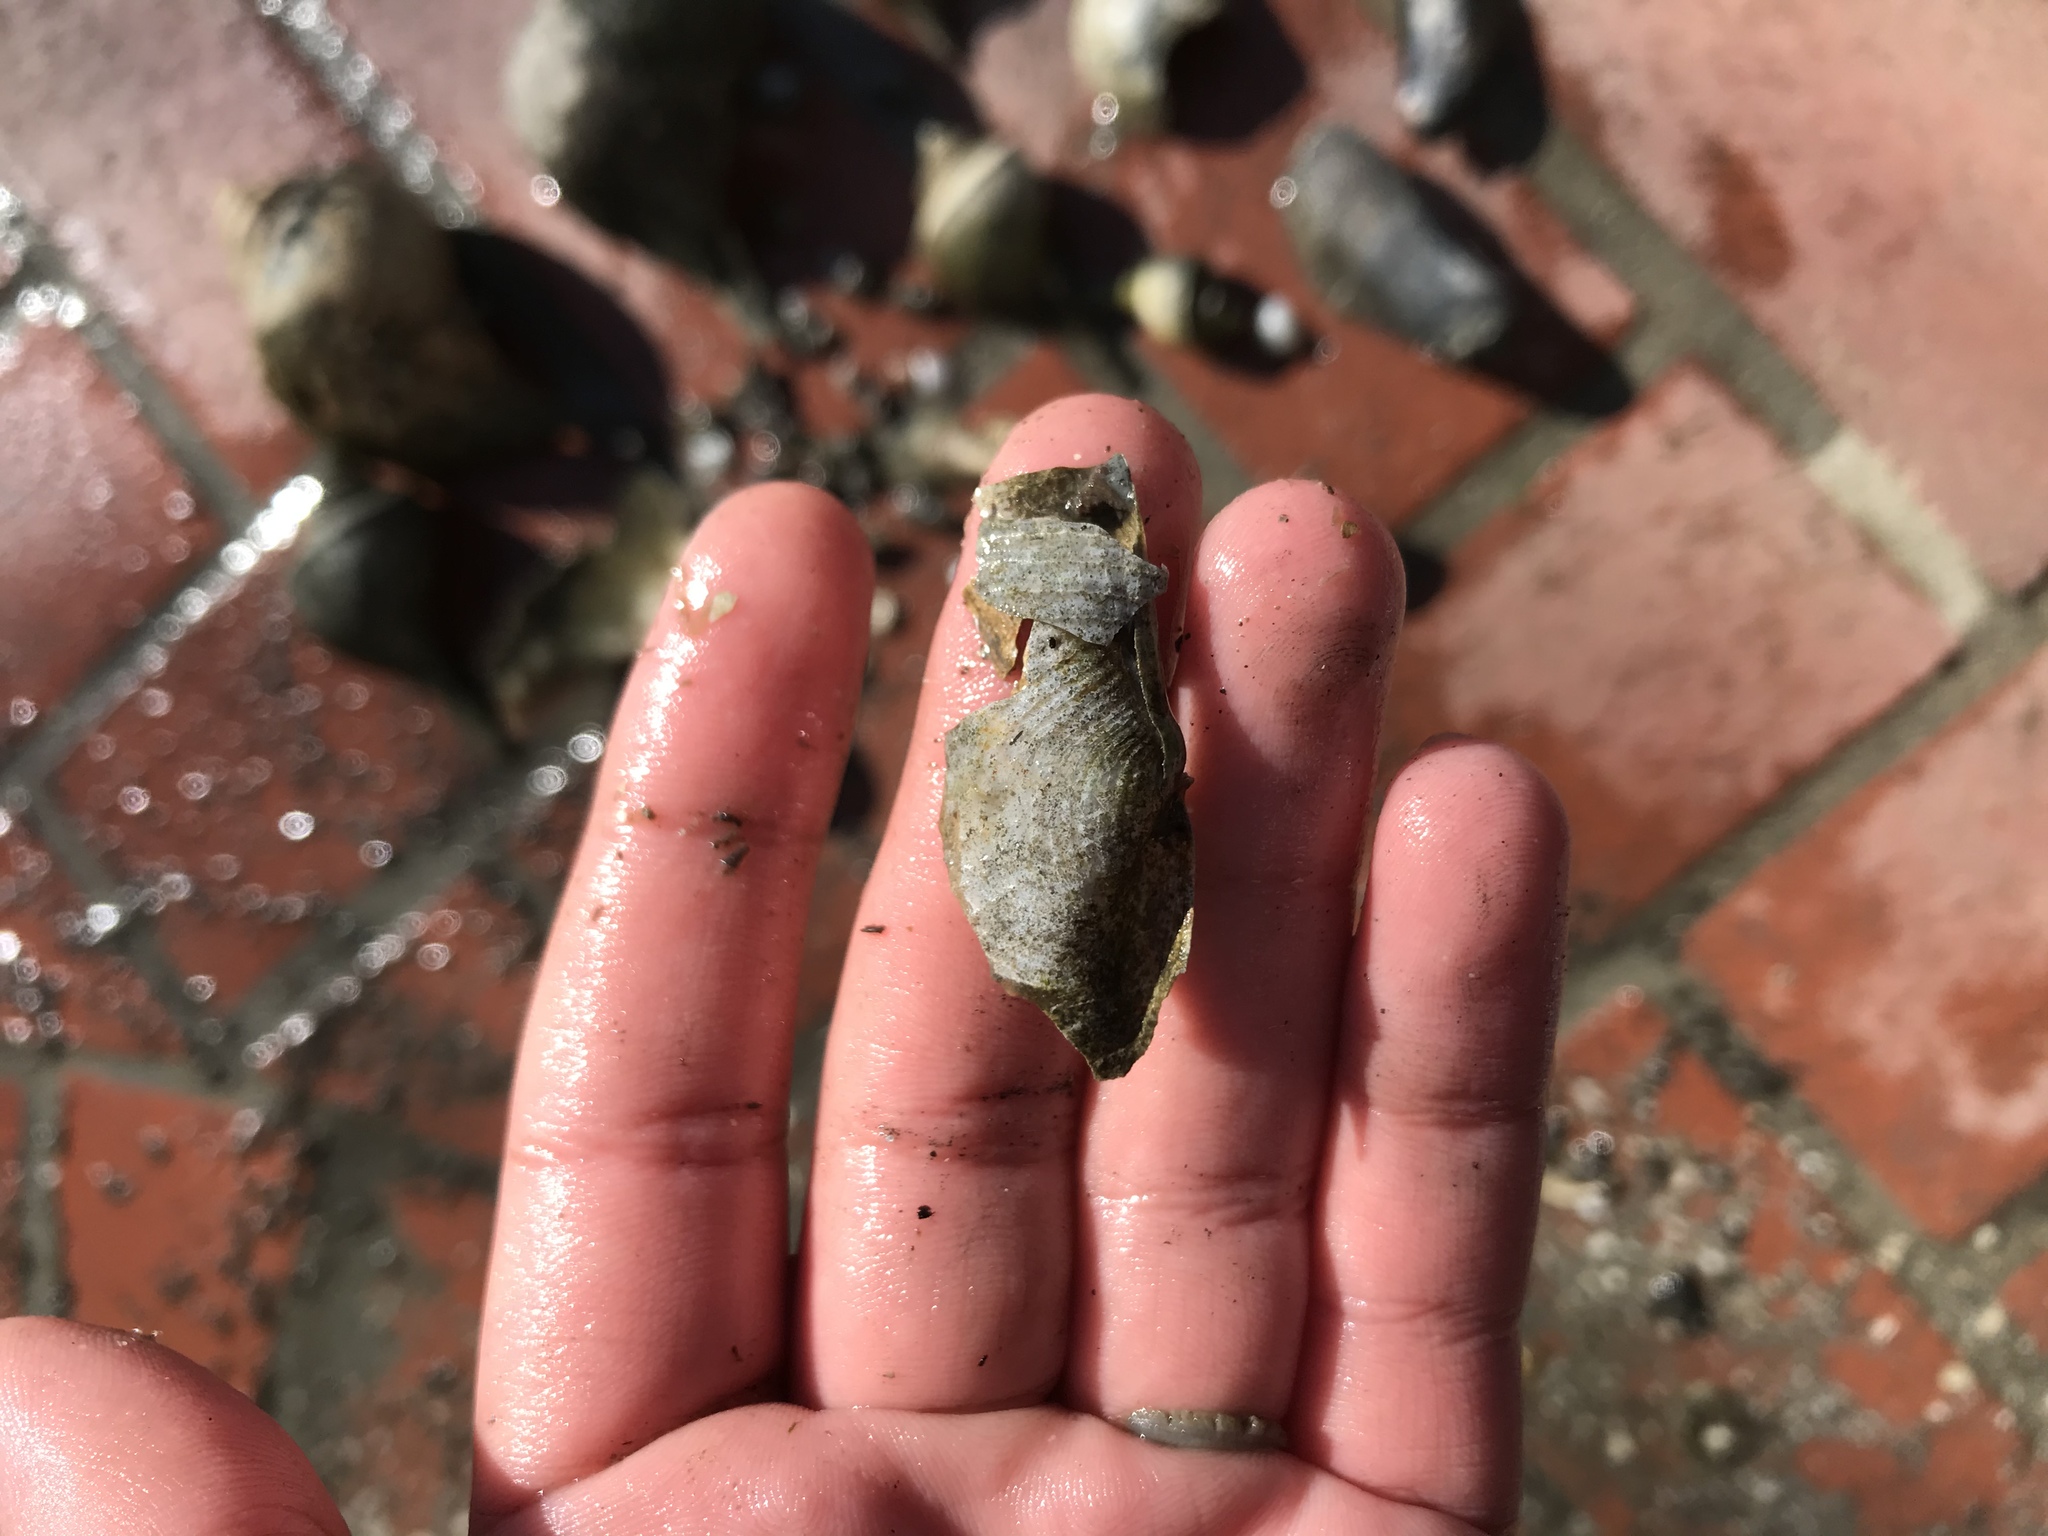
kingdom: Animalia
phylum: Mollusca
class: Bivalvia
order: Myida
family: Pholadidae
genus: Barnea
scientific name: Barnea subtruncata
